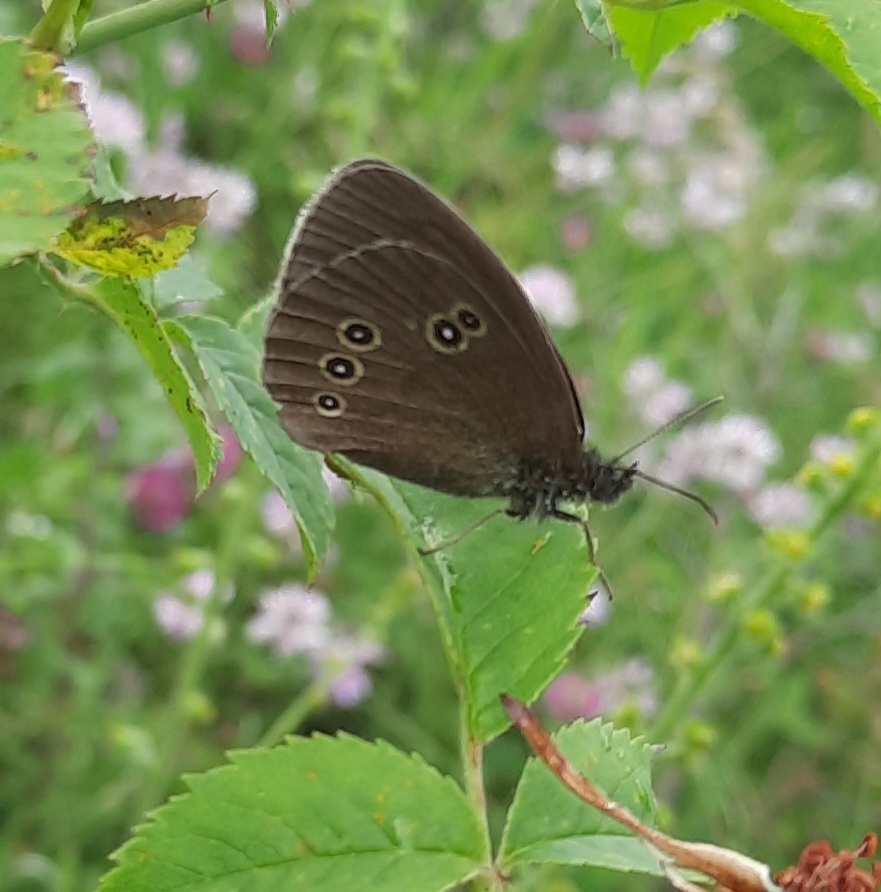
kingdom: Animalia
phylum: Arthropoda
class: Insecta
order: Lepidoptera
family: Nymphalidae
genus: Aphantopus
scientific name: Aphantopus hyperantus
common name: Ringlet
